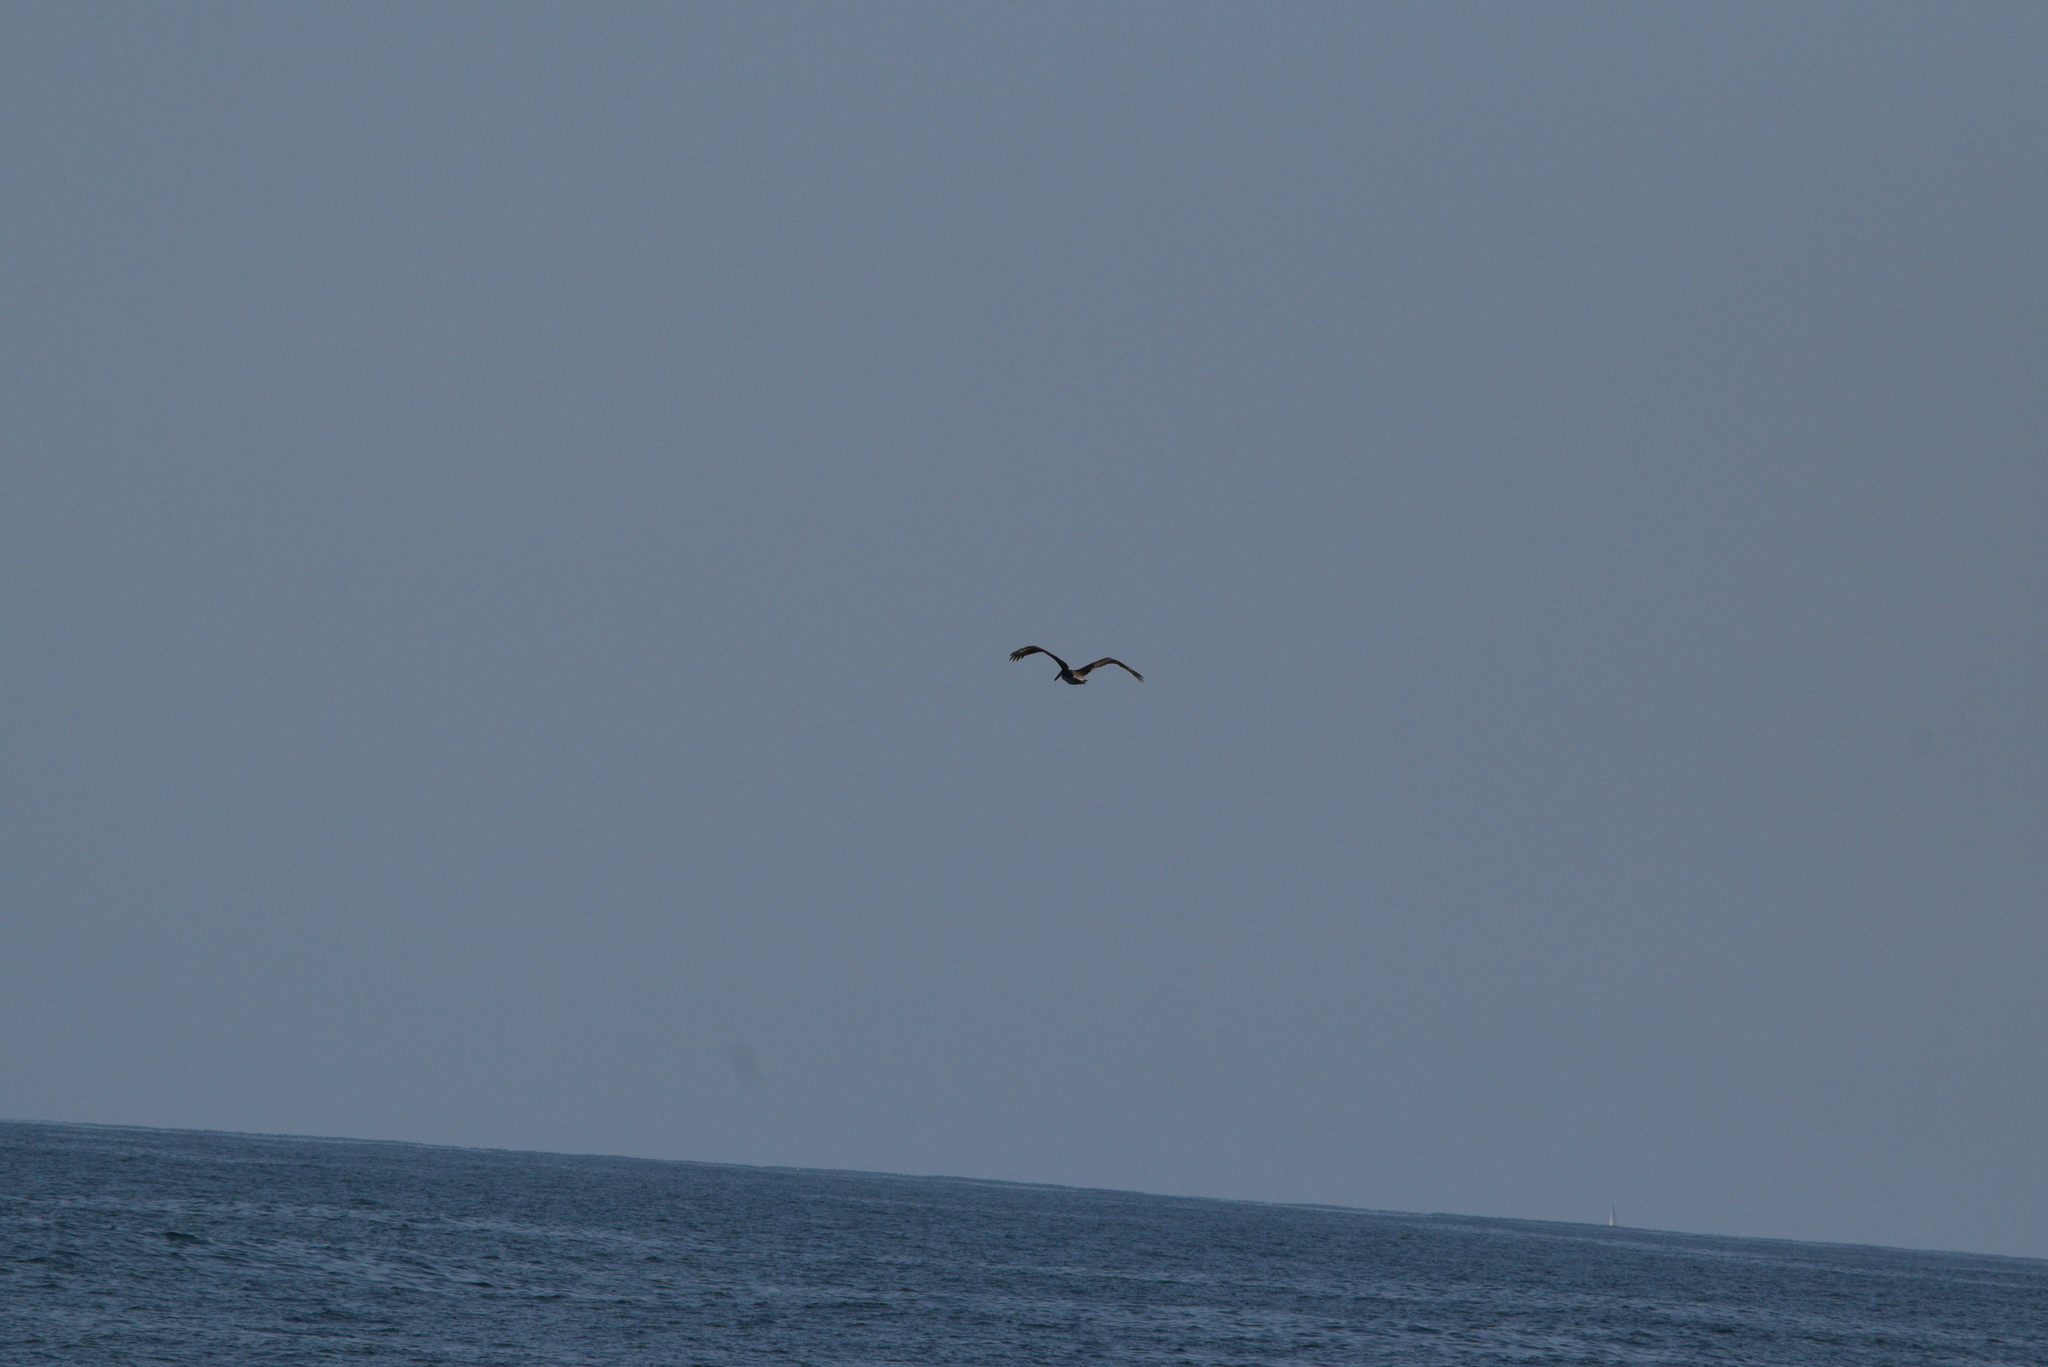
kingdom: Animalia
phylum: Chordata
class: Aves
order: Pelecaniformes
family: Pelecanidae
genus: Pelecanus
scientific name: Pelecanus occidentalis
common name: Brown pelican
